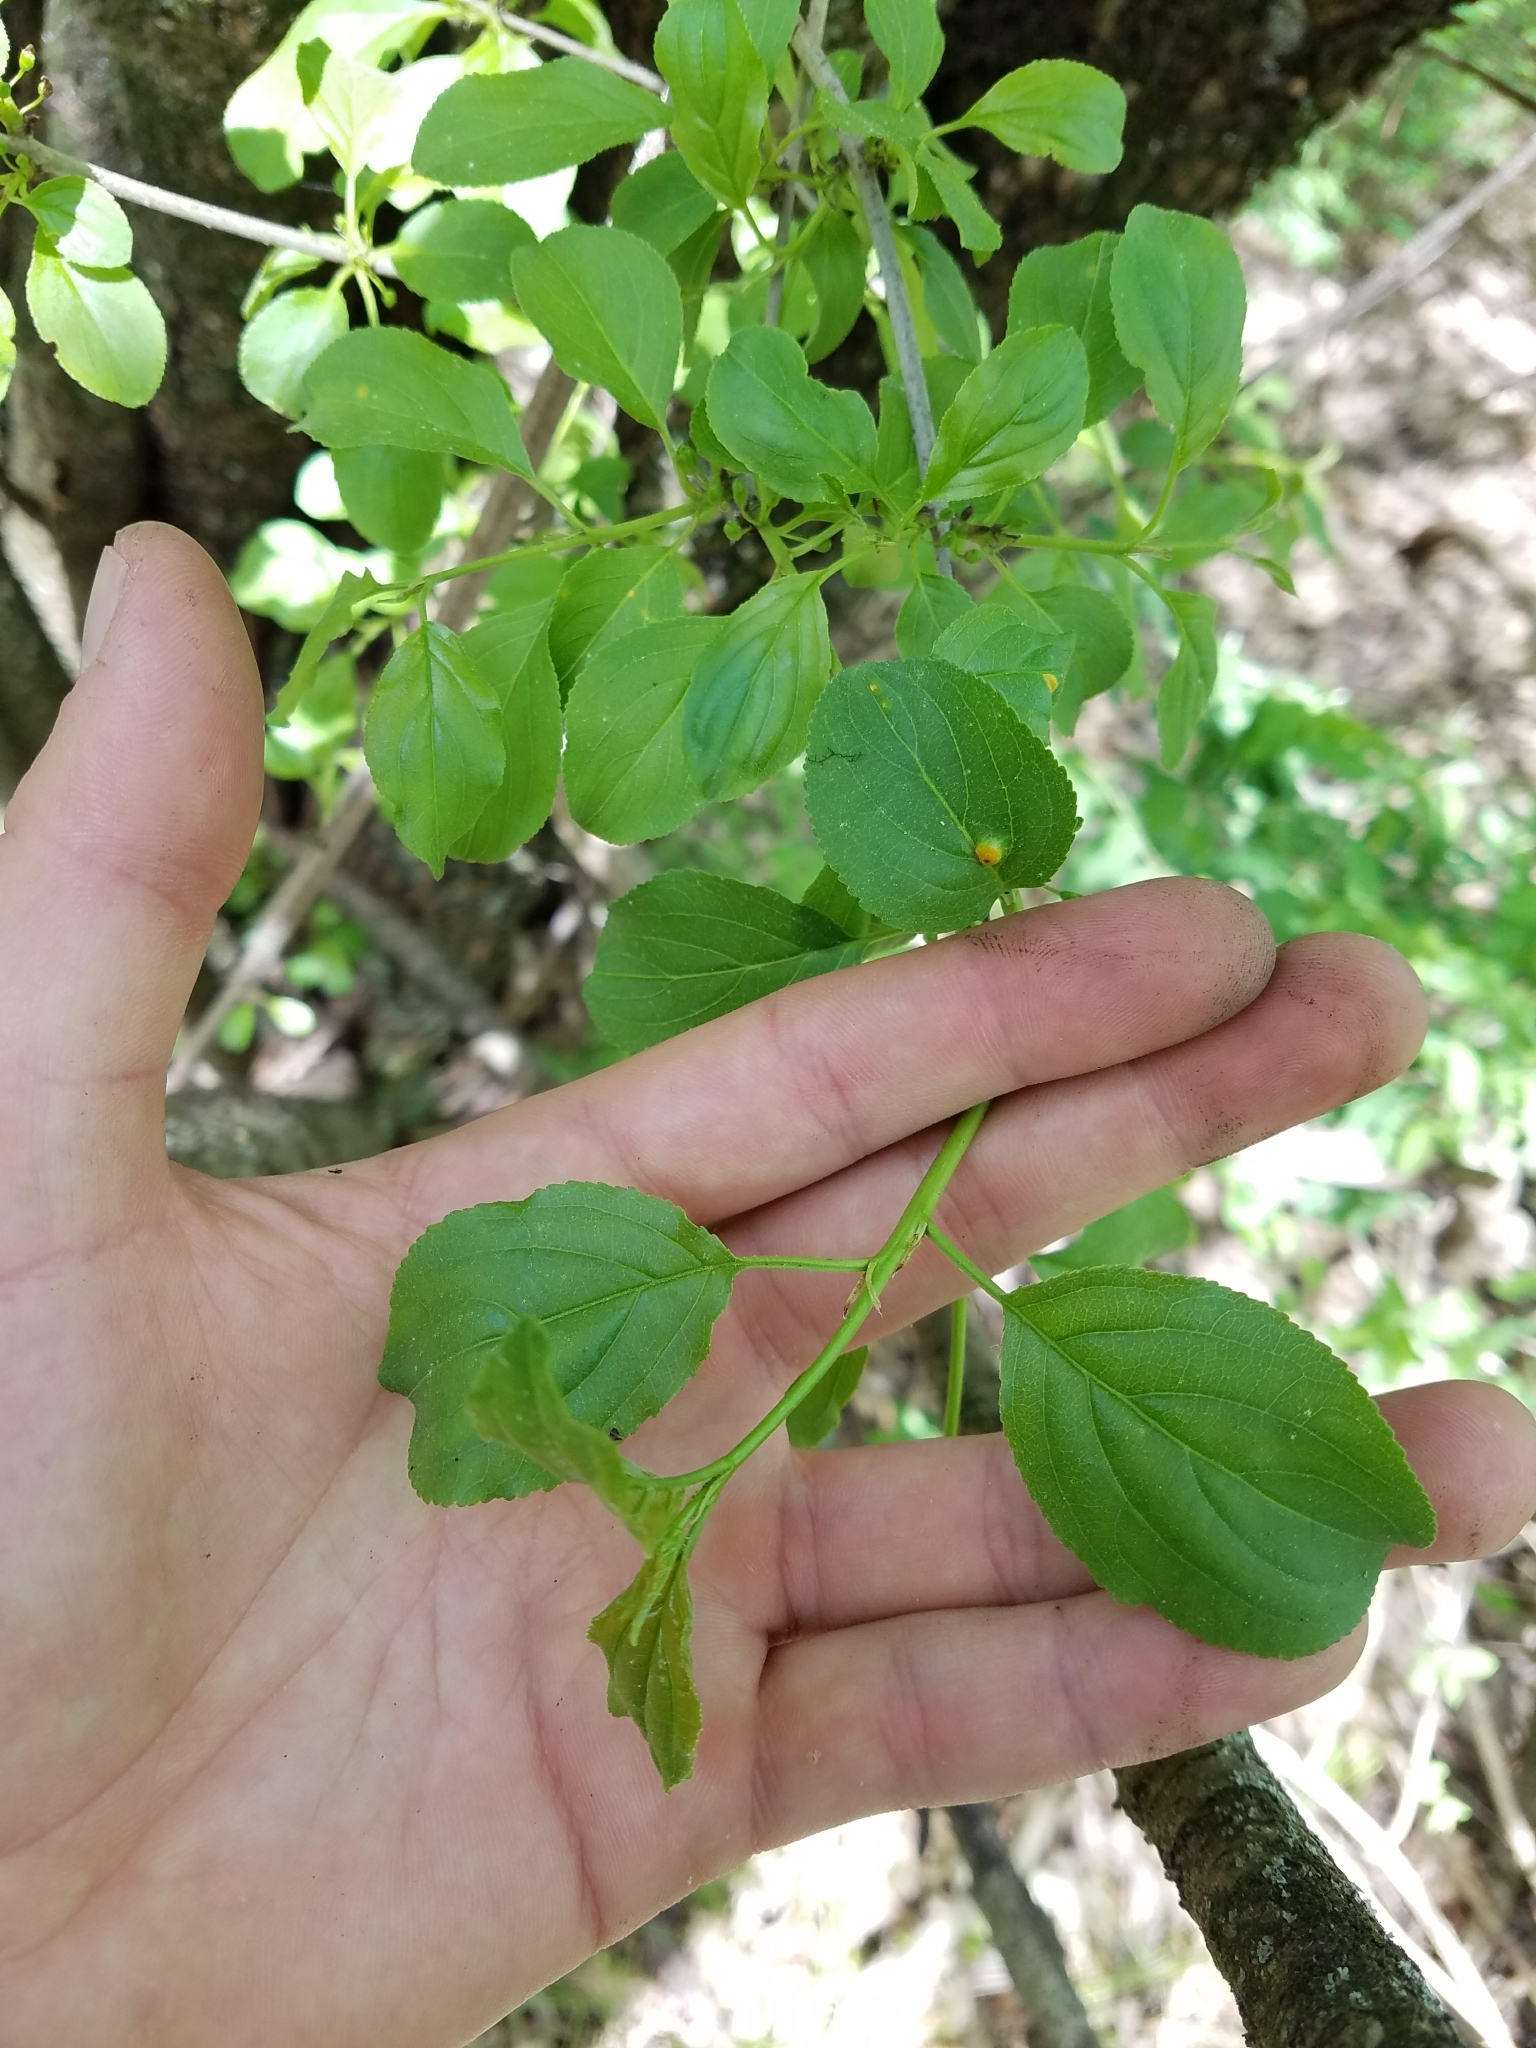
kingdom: Plantae
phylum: Tracheophyta
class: Magnoliopsida
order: Rosales
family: Rhamnaceae
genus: Rhamnus
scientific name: Rhamnus cathartica
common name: Common buckthorn
